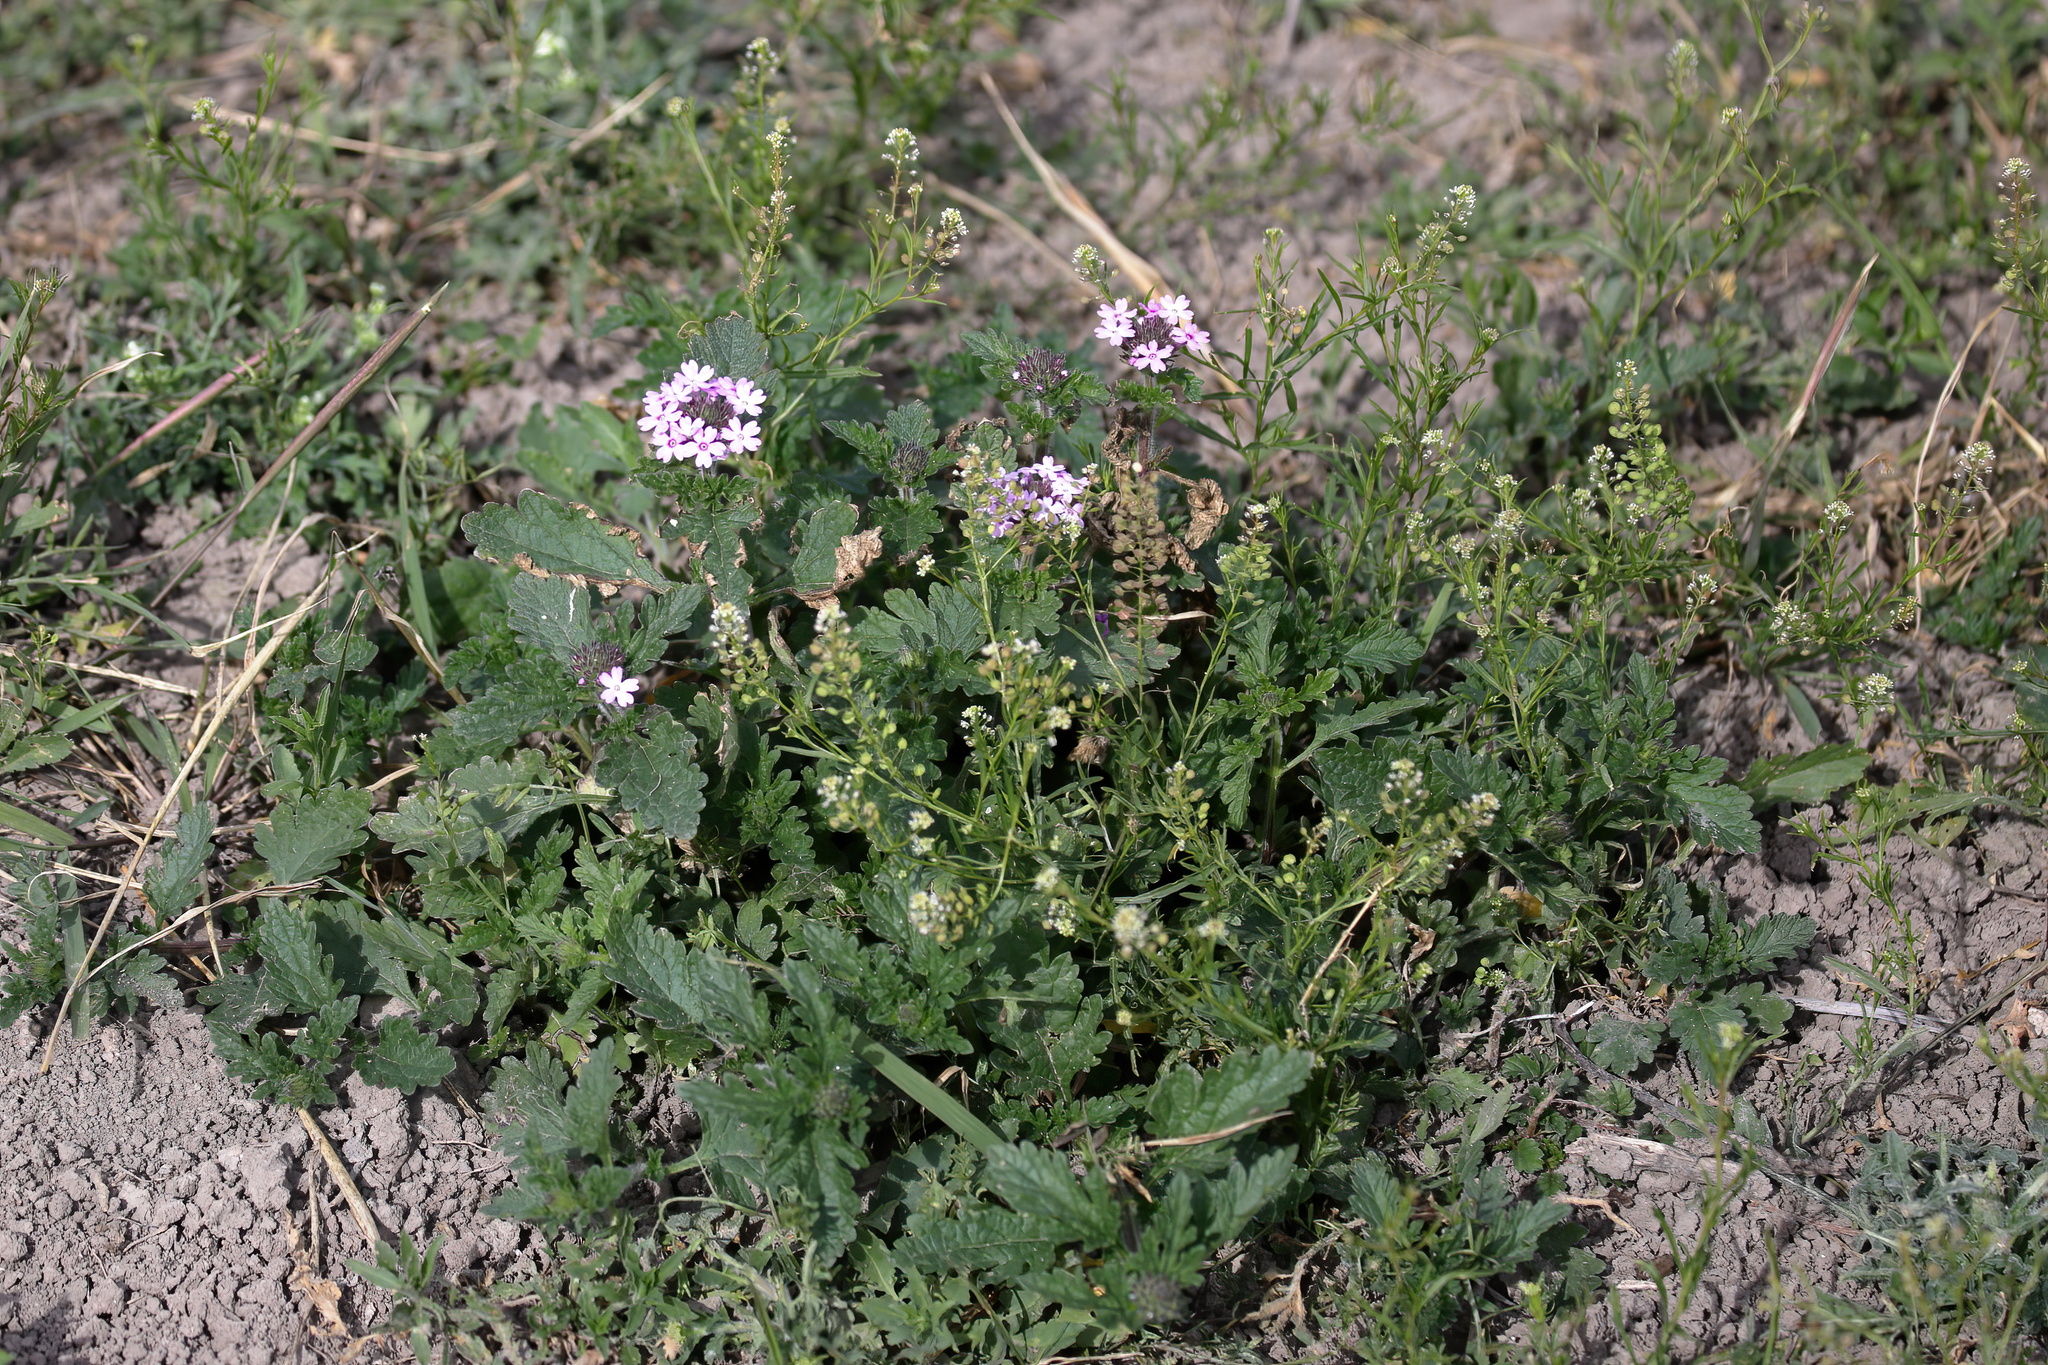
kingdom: Plantae
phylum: Tracheophyta
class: Magnoliopsida
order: Lamiales
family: Verbenaceae
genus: Verbena
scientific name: Verbena pumila
